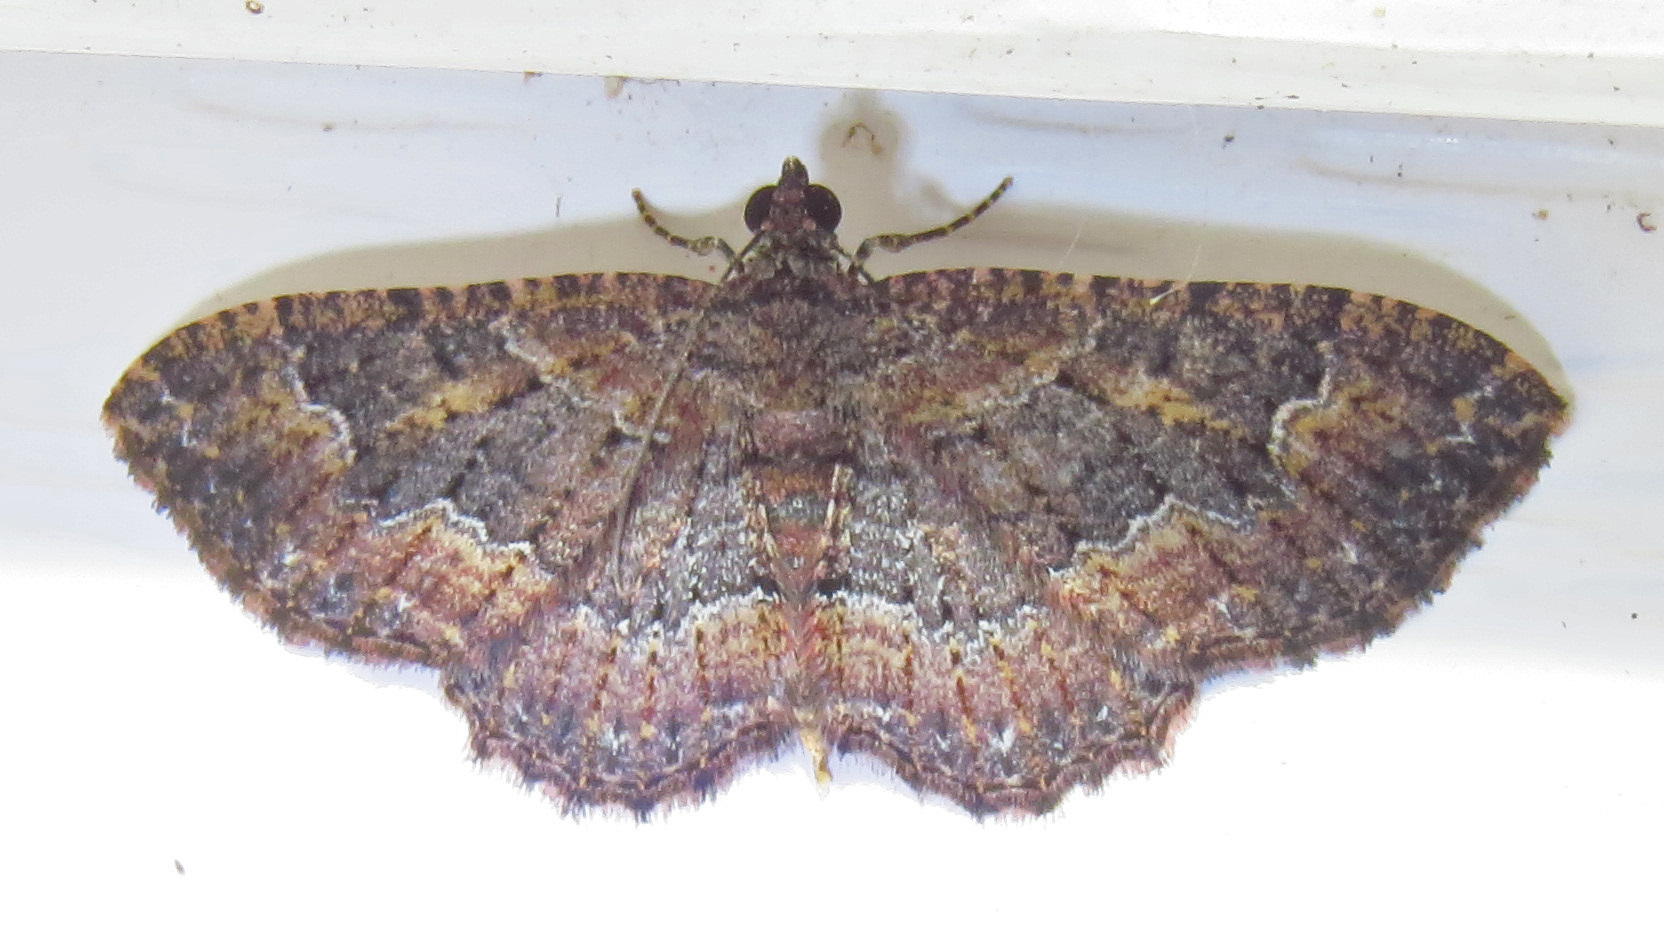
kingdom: Animalia
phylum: Arthropoda
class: Insecta
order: Lepidoptera
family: Geometridae
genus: Disclisioprocta
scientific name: Disclisioprocta stellata
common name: Somber carpet
